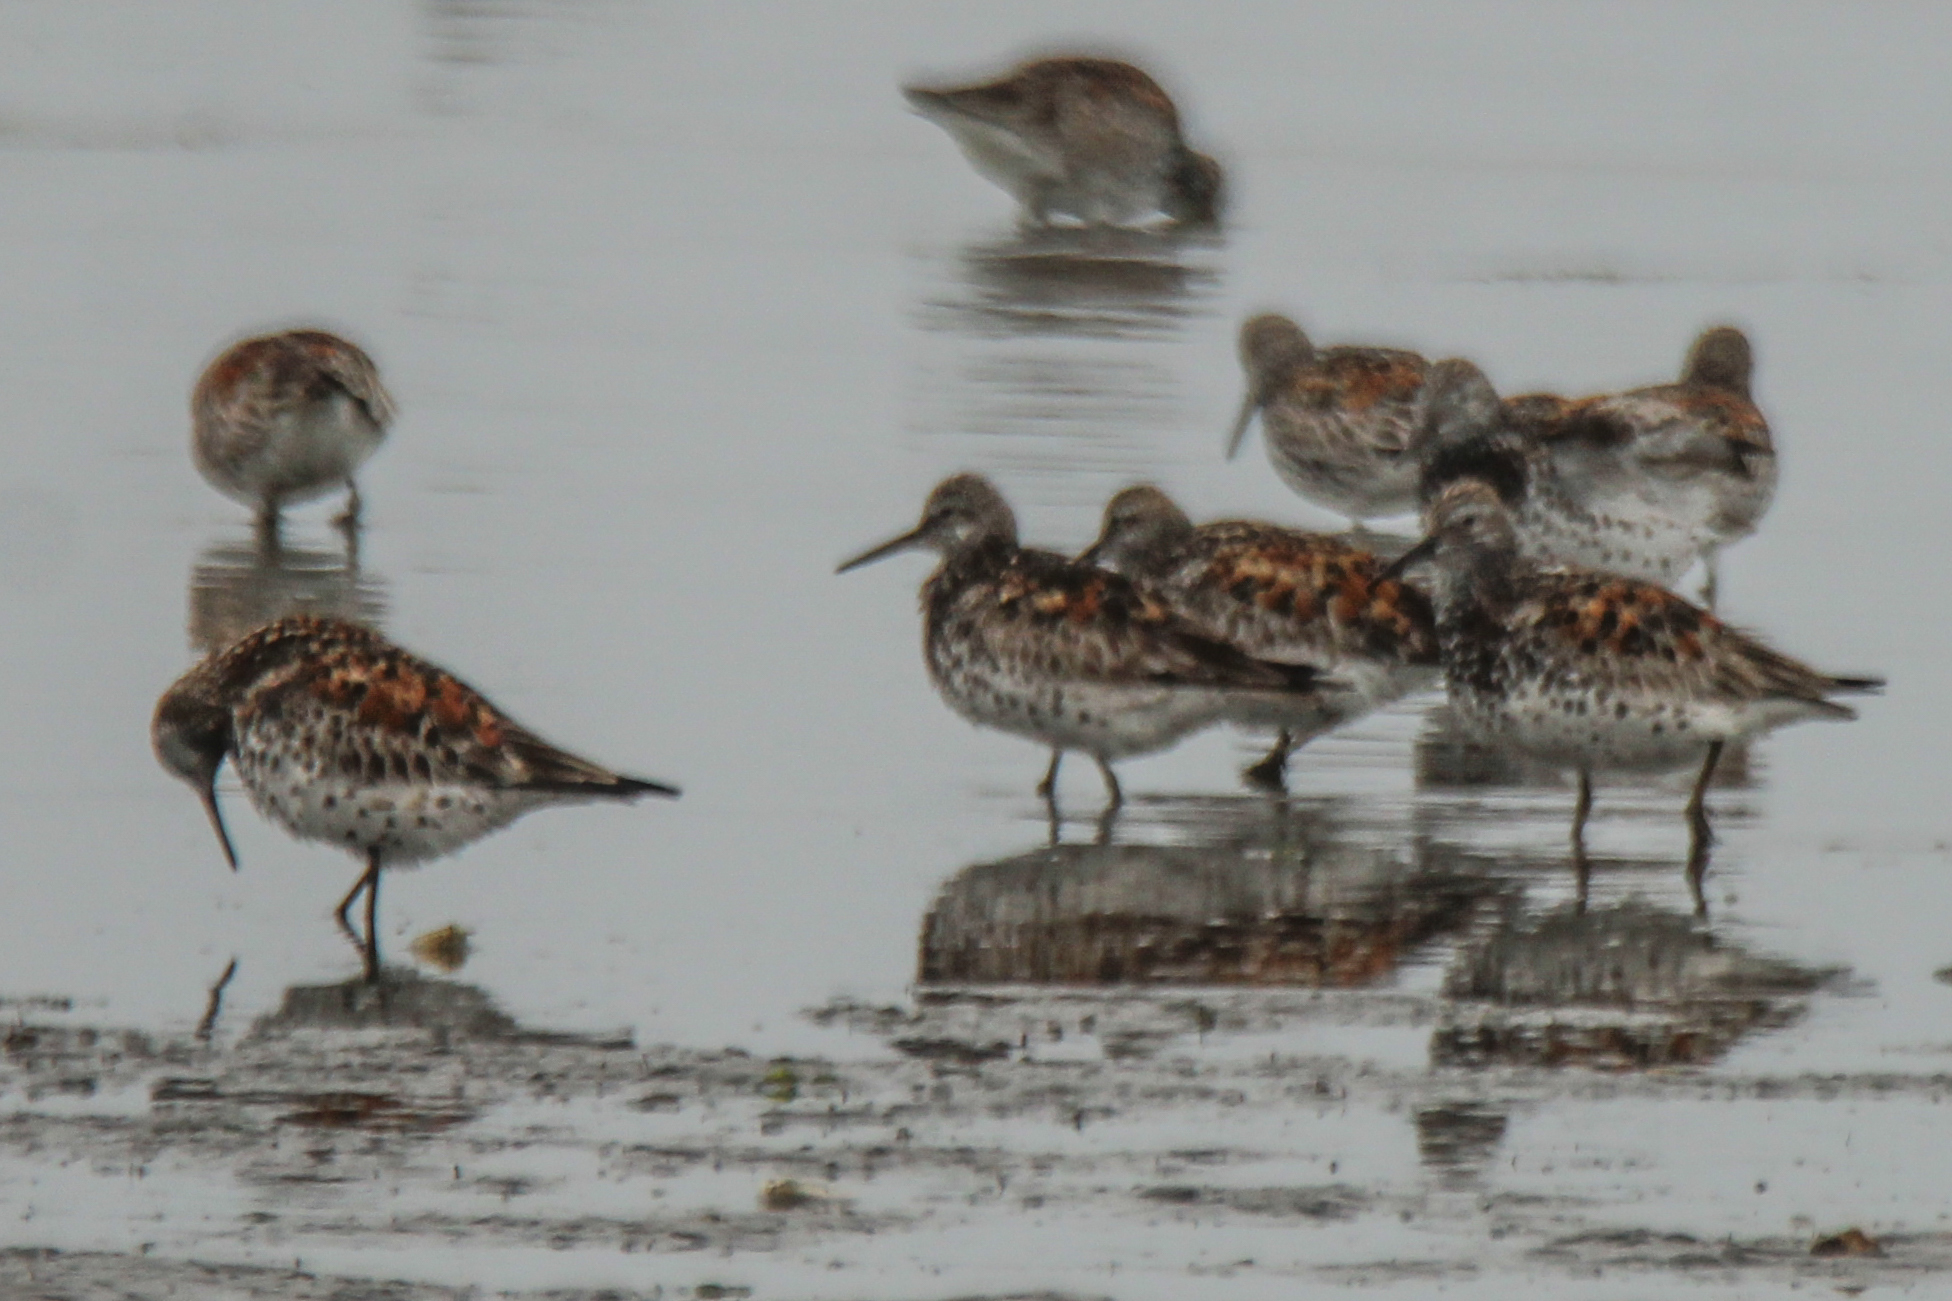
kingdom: Animalia
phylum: Chordata
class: Aves
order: Charadriiformes
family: Scolopacidae
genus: Calidris
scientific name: Calidris tenuirostris
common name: Great knot
